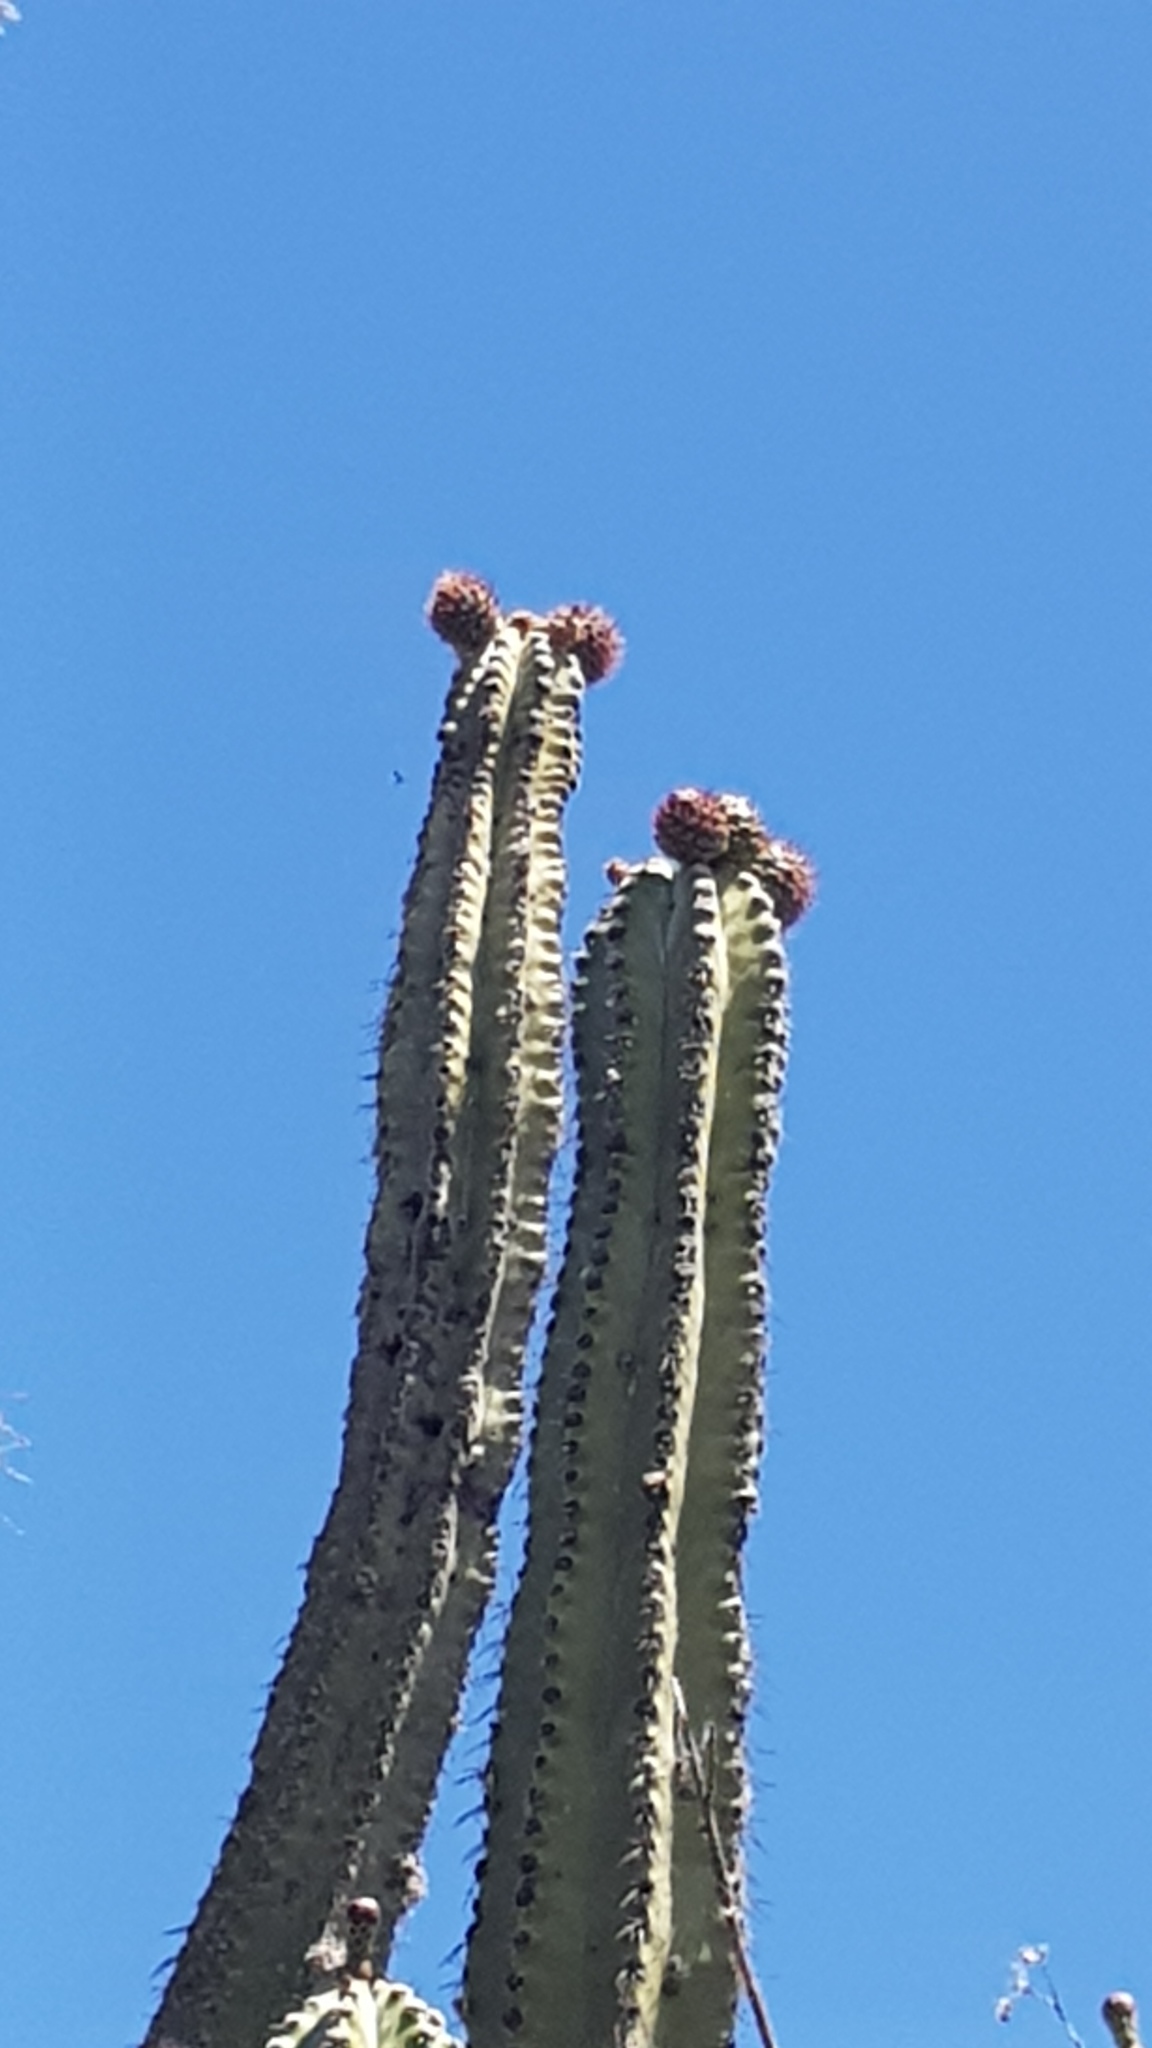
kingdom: Plantae
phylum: Tracheophyta
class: Magnoliopsida
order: Caryophyllales
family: Cactaceae
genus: Stenocereus
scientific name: Stenocereus pruinosus
